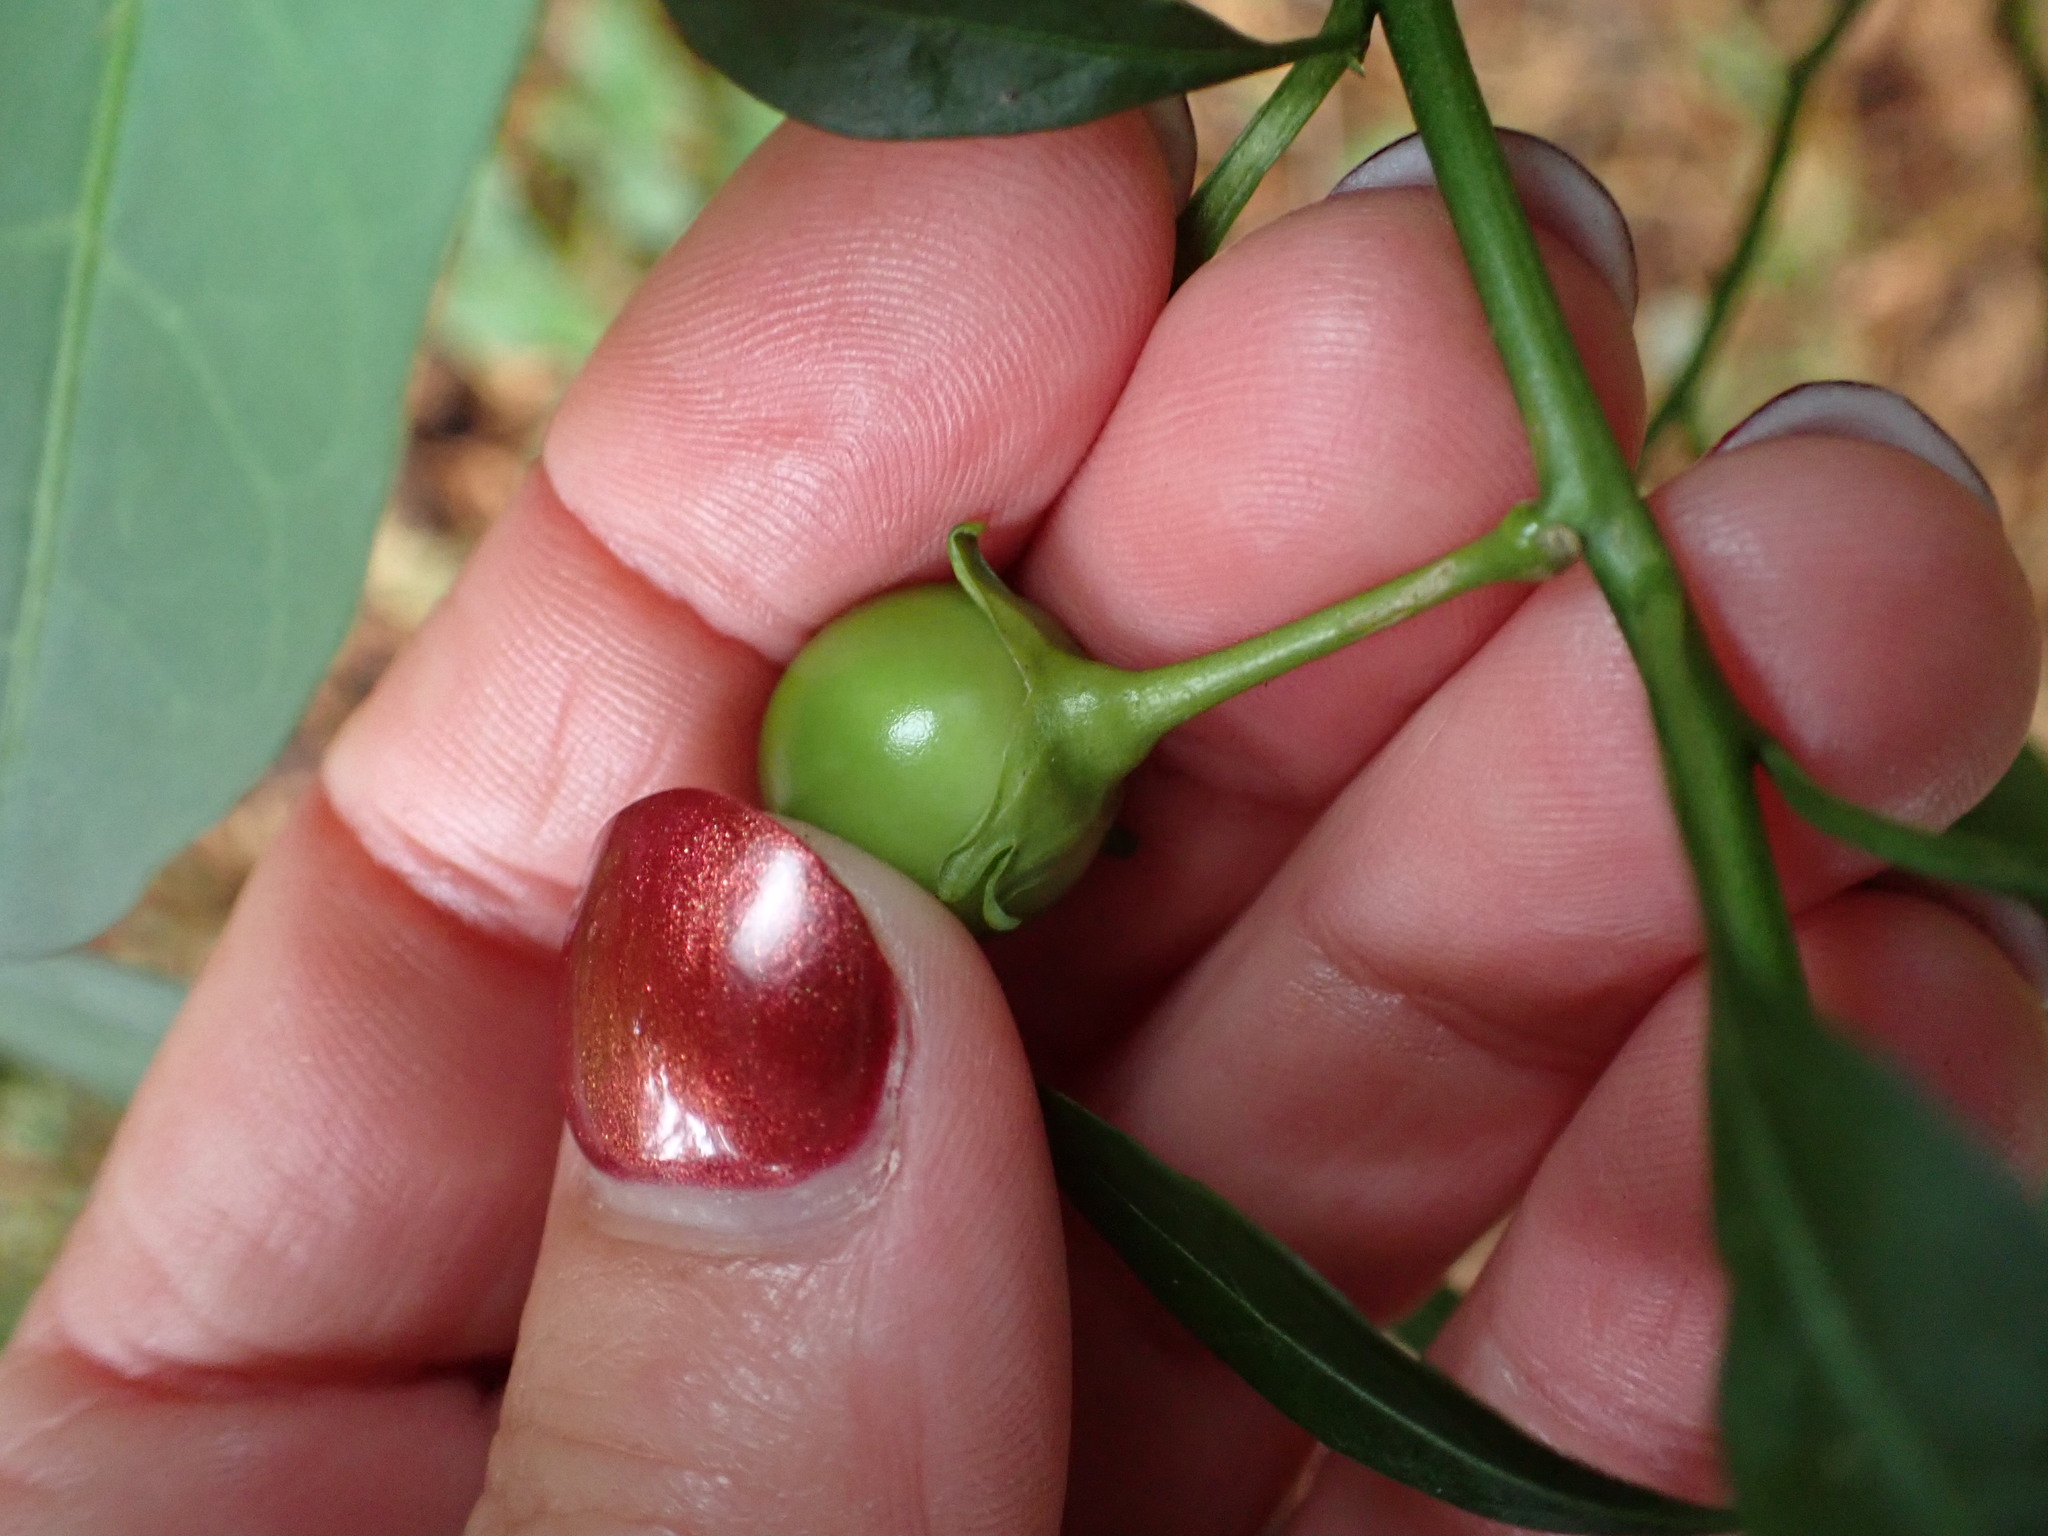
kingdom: Plantae
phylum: Tracheophyta
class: Magnoliopsida
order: Solanales
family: Solanaceae
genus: Solanum
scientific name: Solanum pseudocapsicum
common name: Jerusalem cherry
